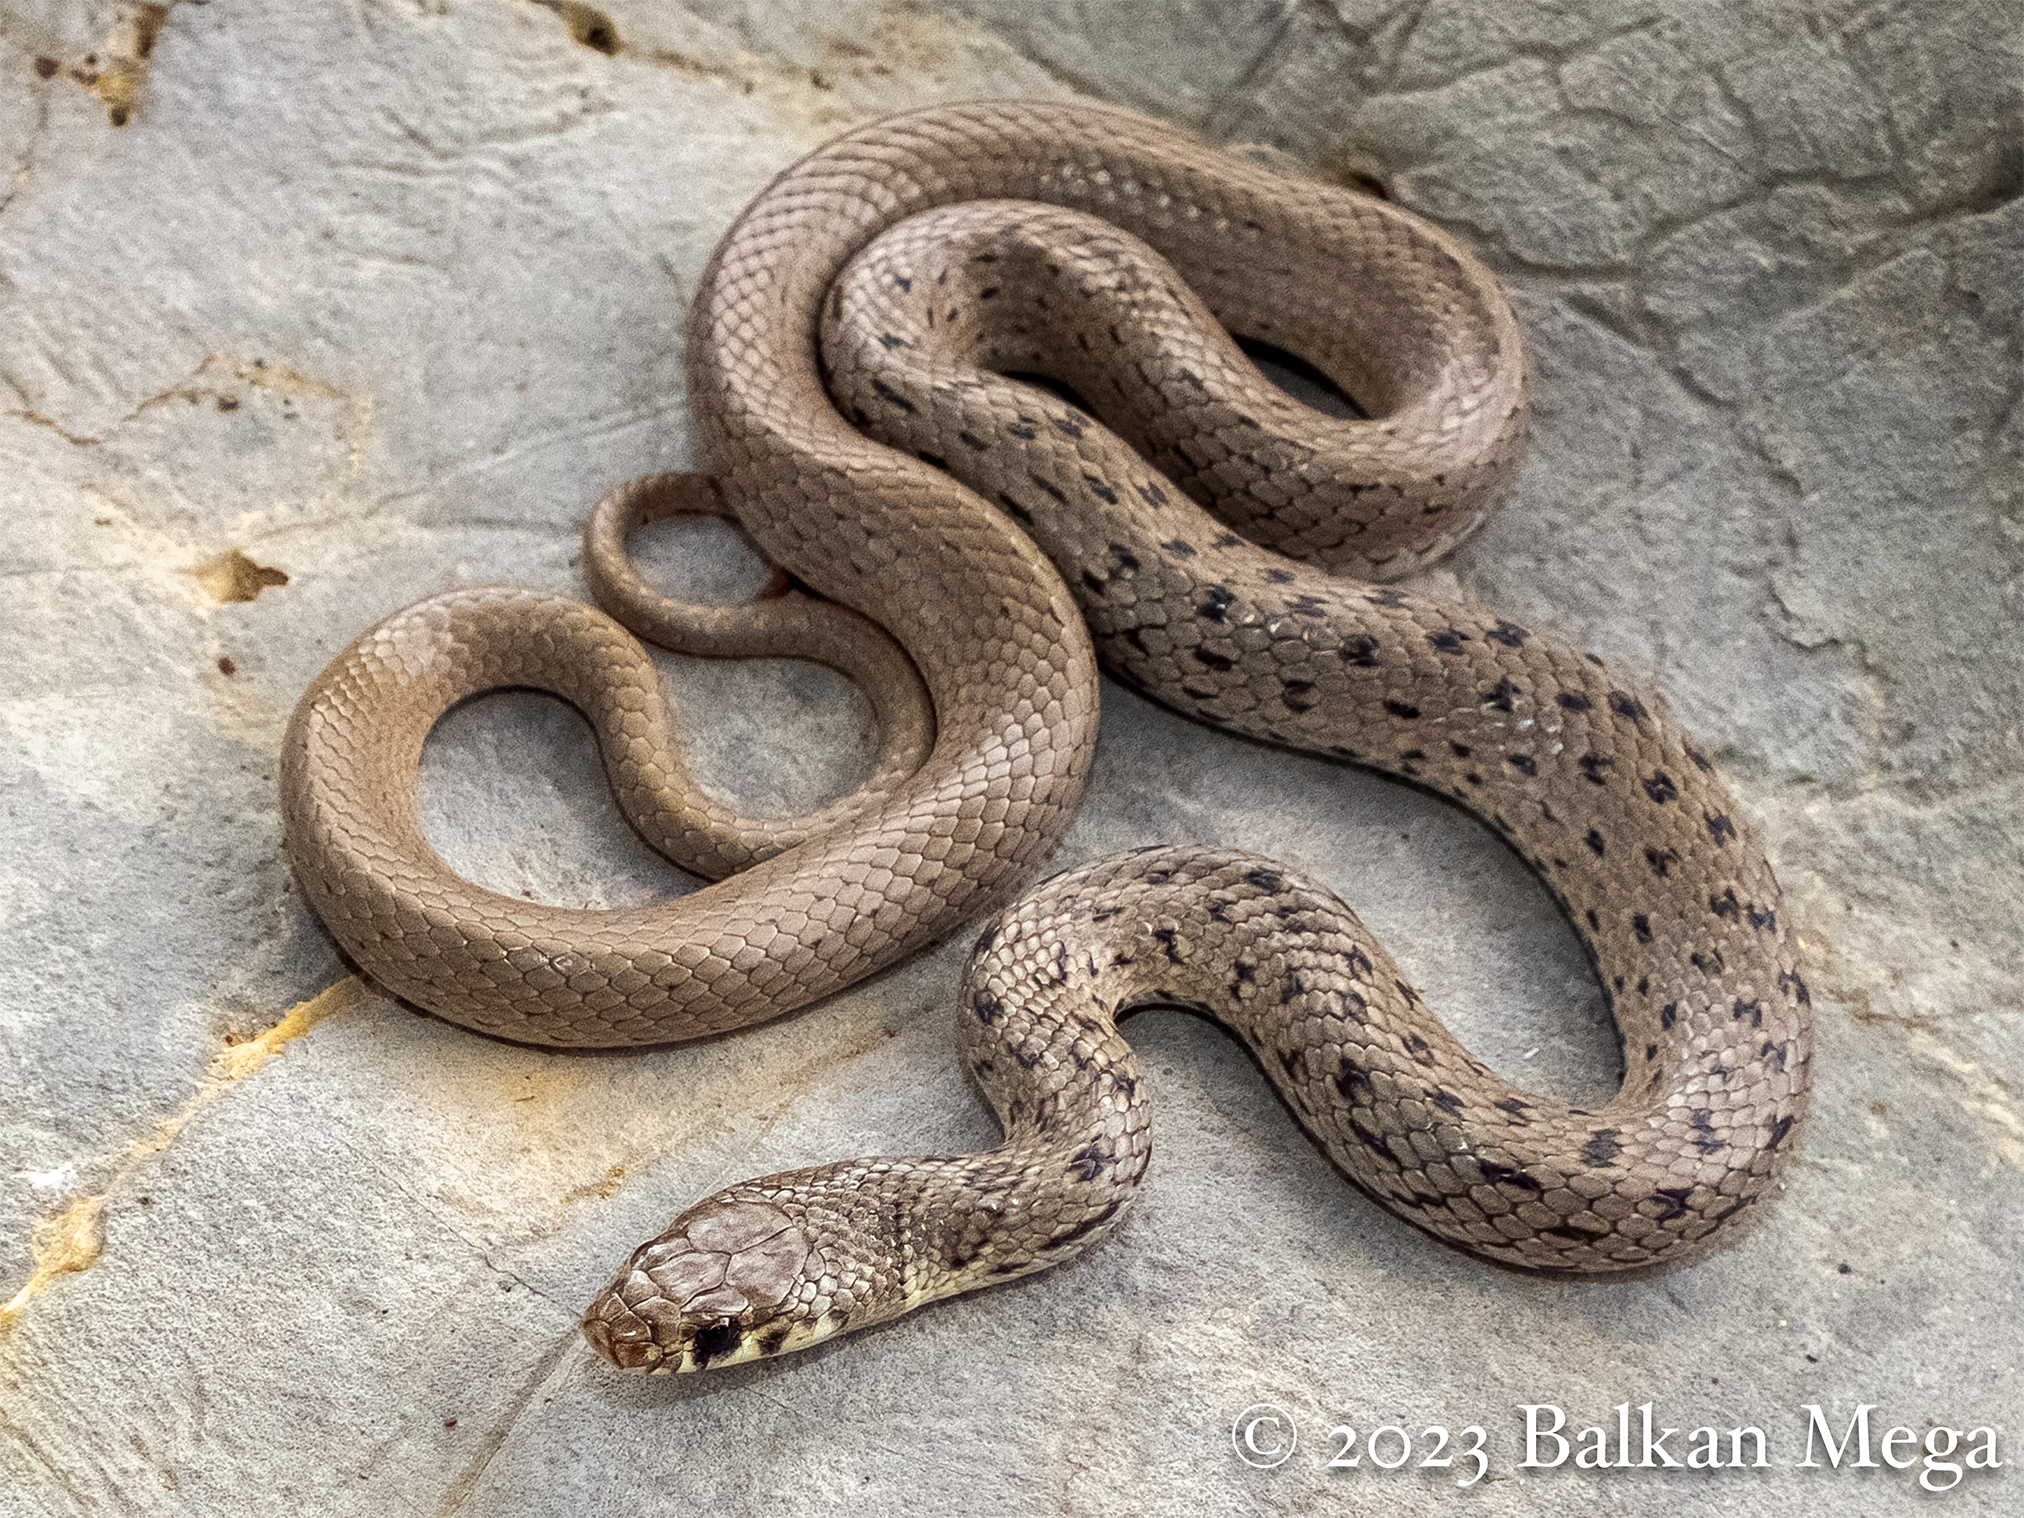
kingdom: Animalia
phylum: Chordata
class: Squamata
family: Colubridae
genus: Eirenis
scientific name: Eirenis modestus
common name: Ring-headed dwarf snake
